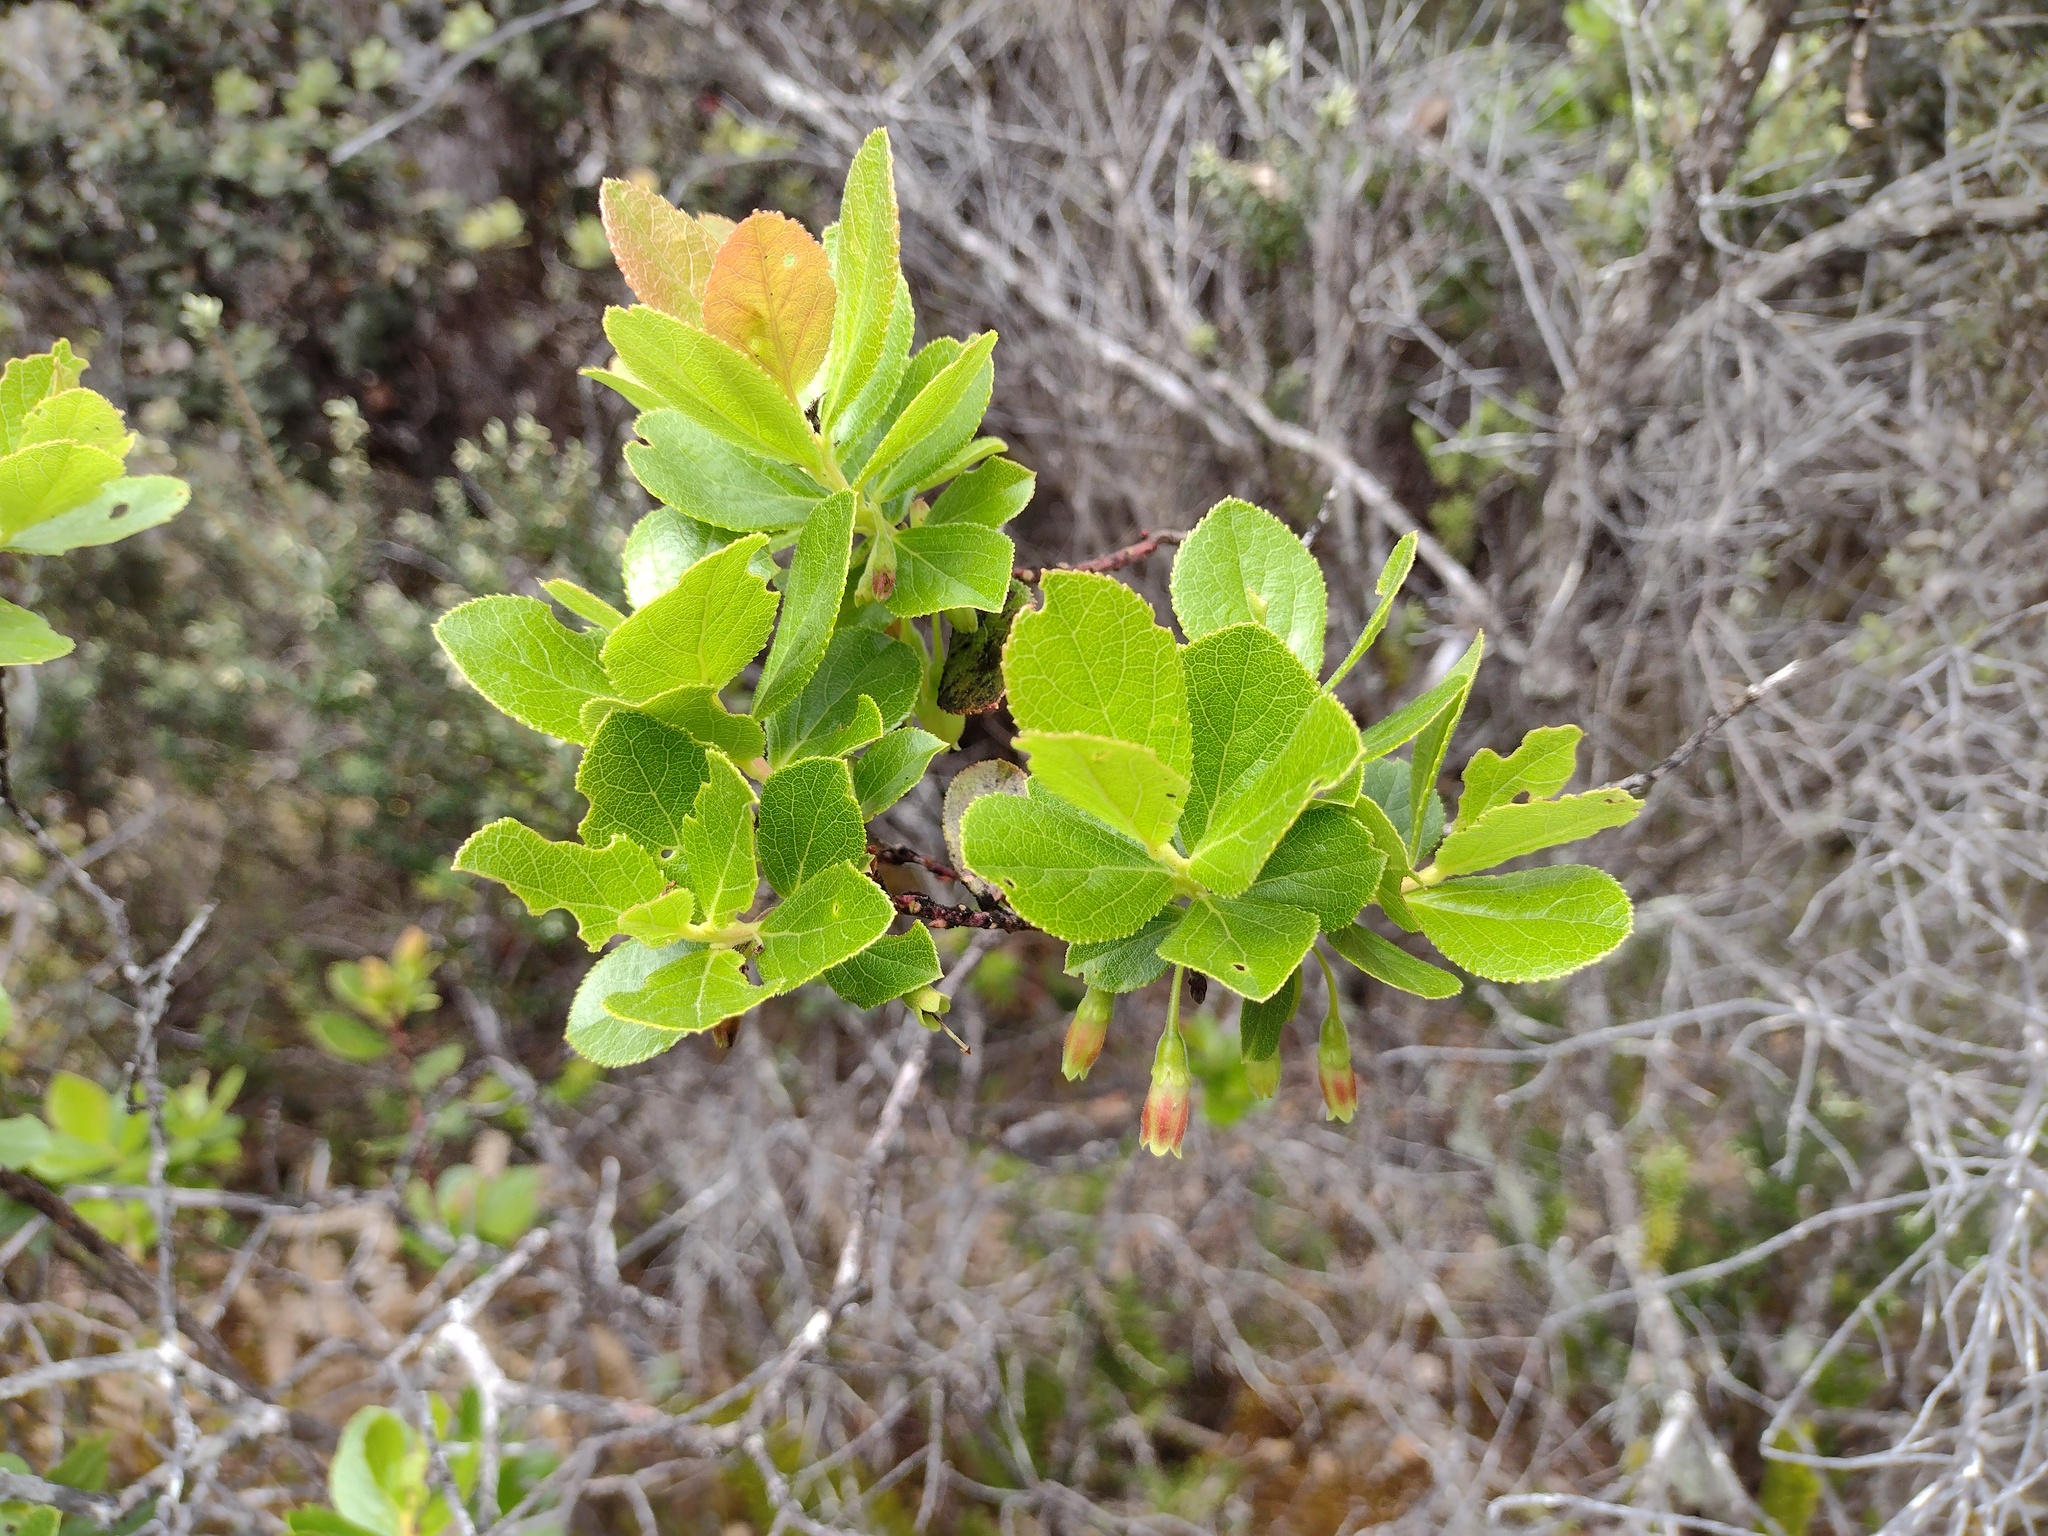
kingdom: Plantae
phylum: Tracheophyta
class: Magnoliopsida
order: Ericales
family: Ericaceae
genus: Vaccinium
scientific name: Vaccinium calycinum
